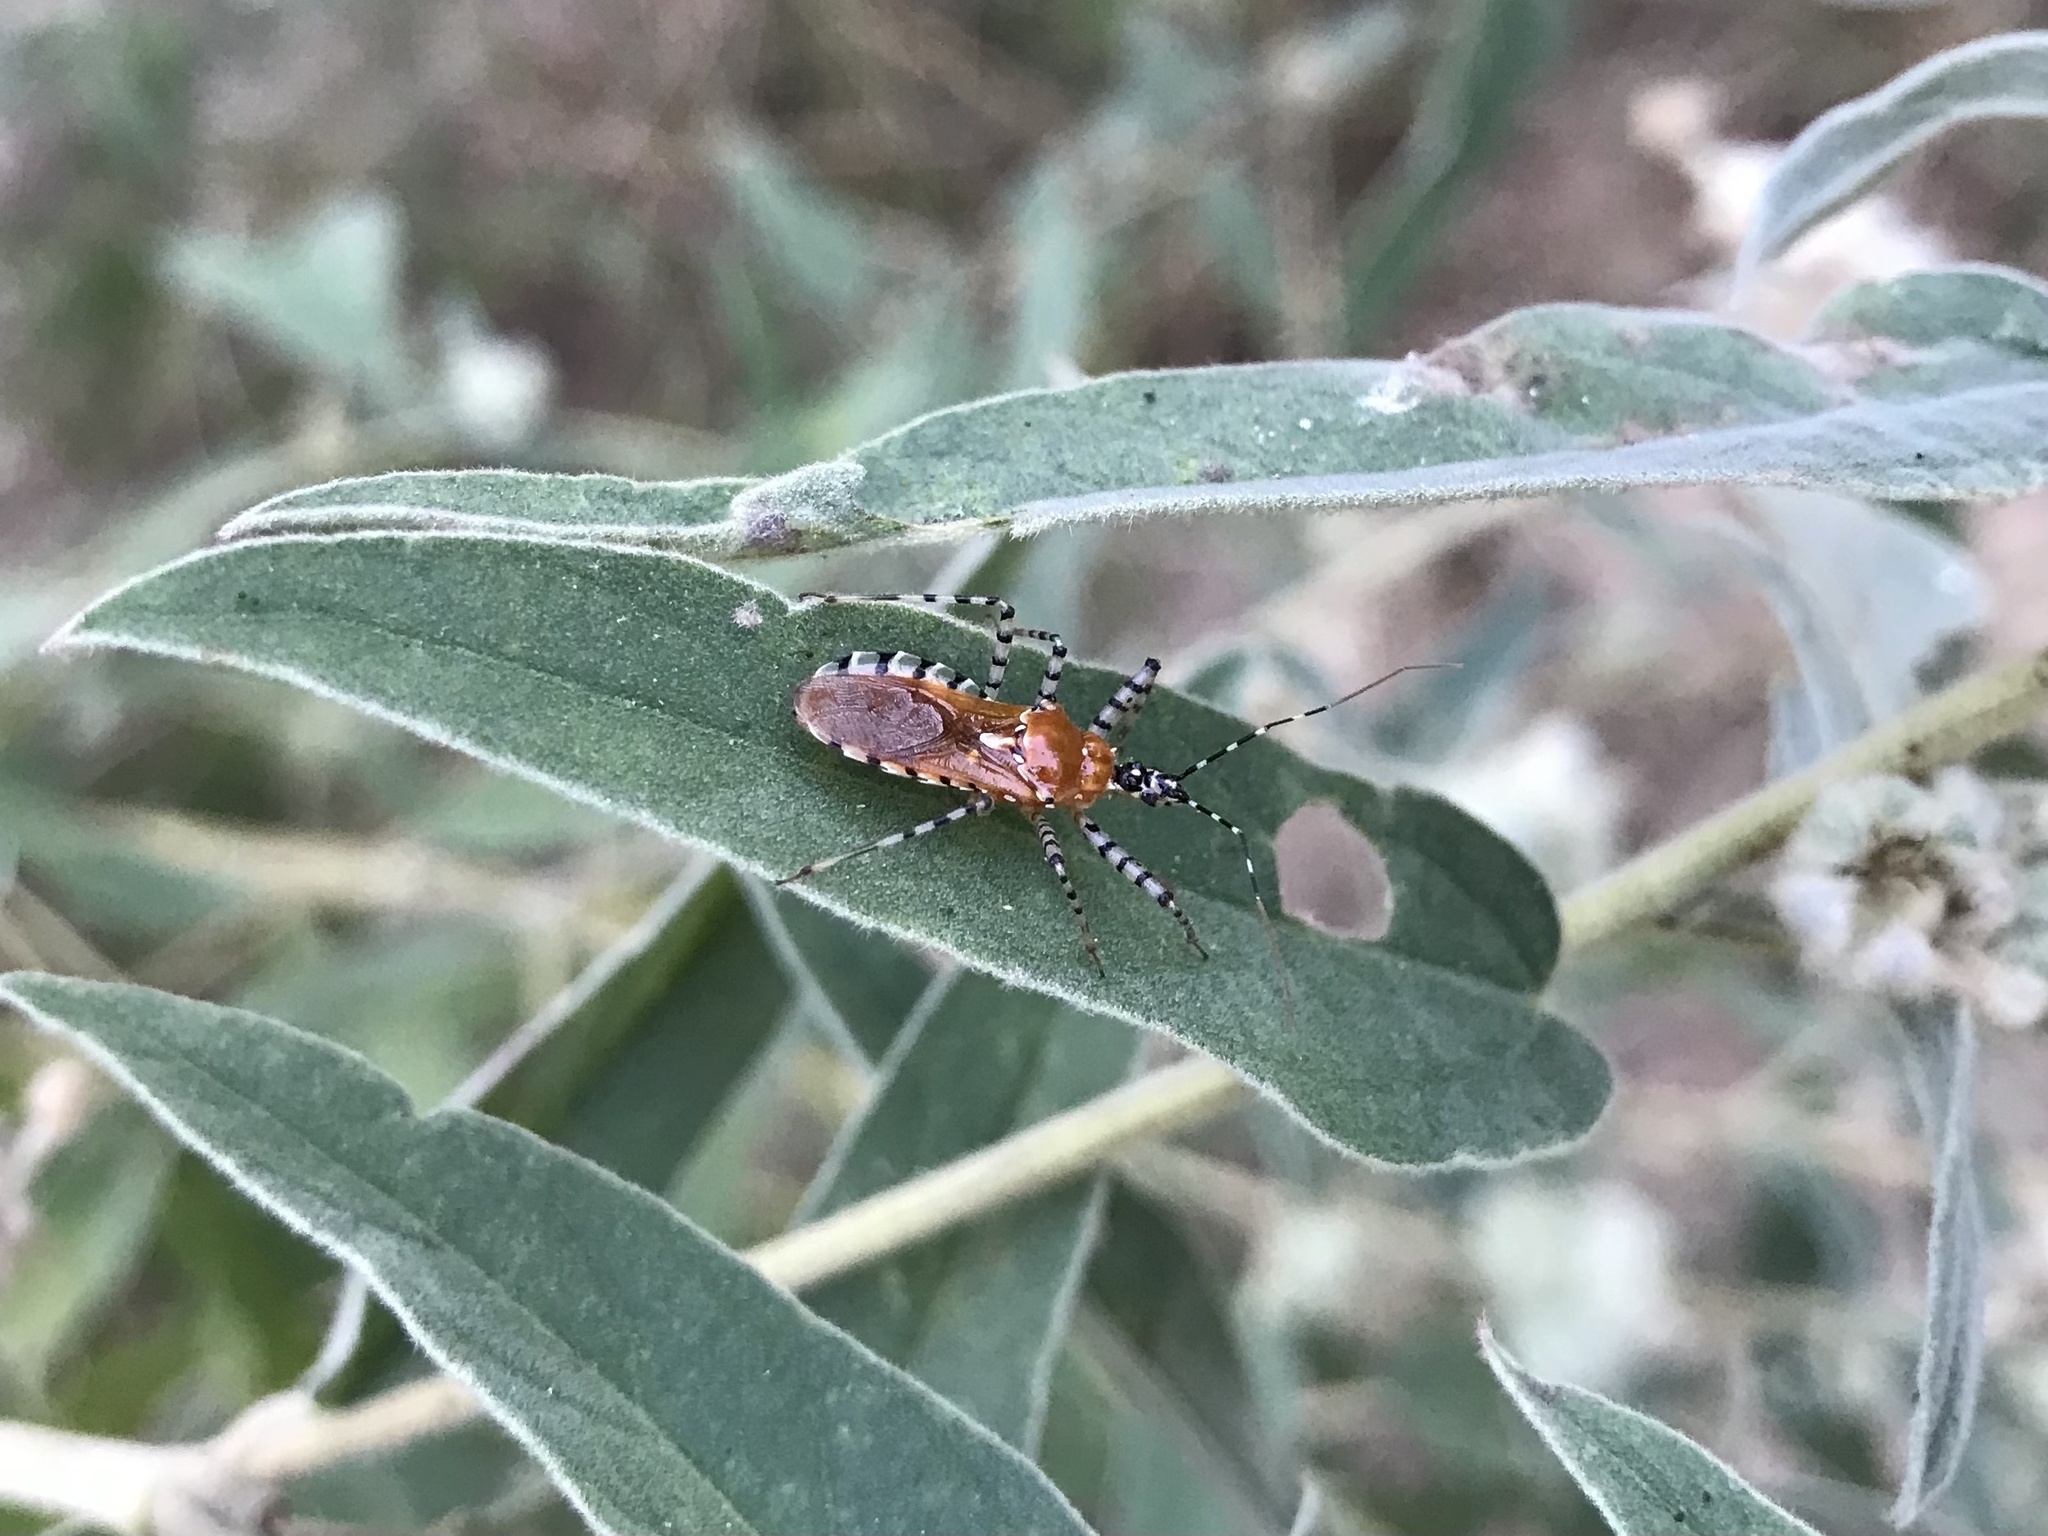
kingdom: Animalia
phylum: Arthropoda
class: Insecta
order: Hemiptera
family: Reduviidae
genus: Pselliopus
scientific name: Pselliopus cinctus
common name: Ringed assassin bug
